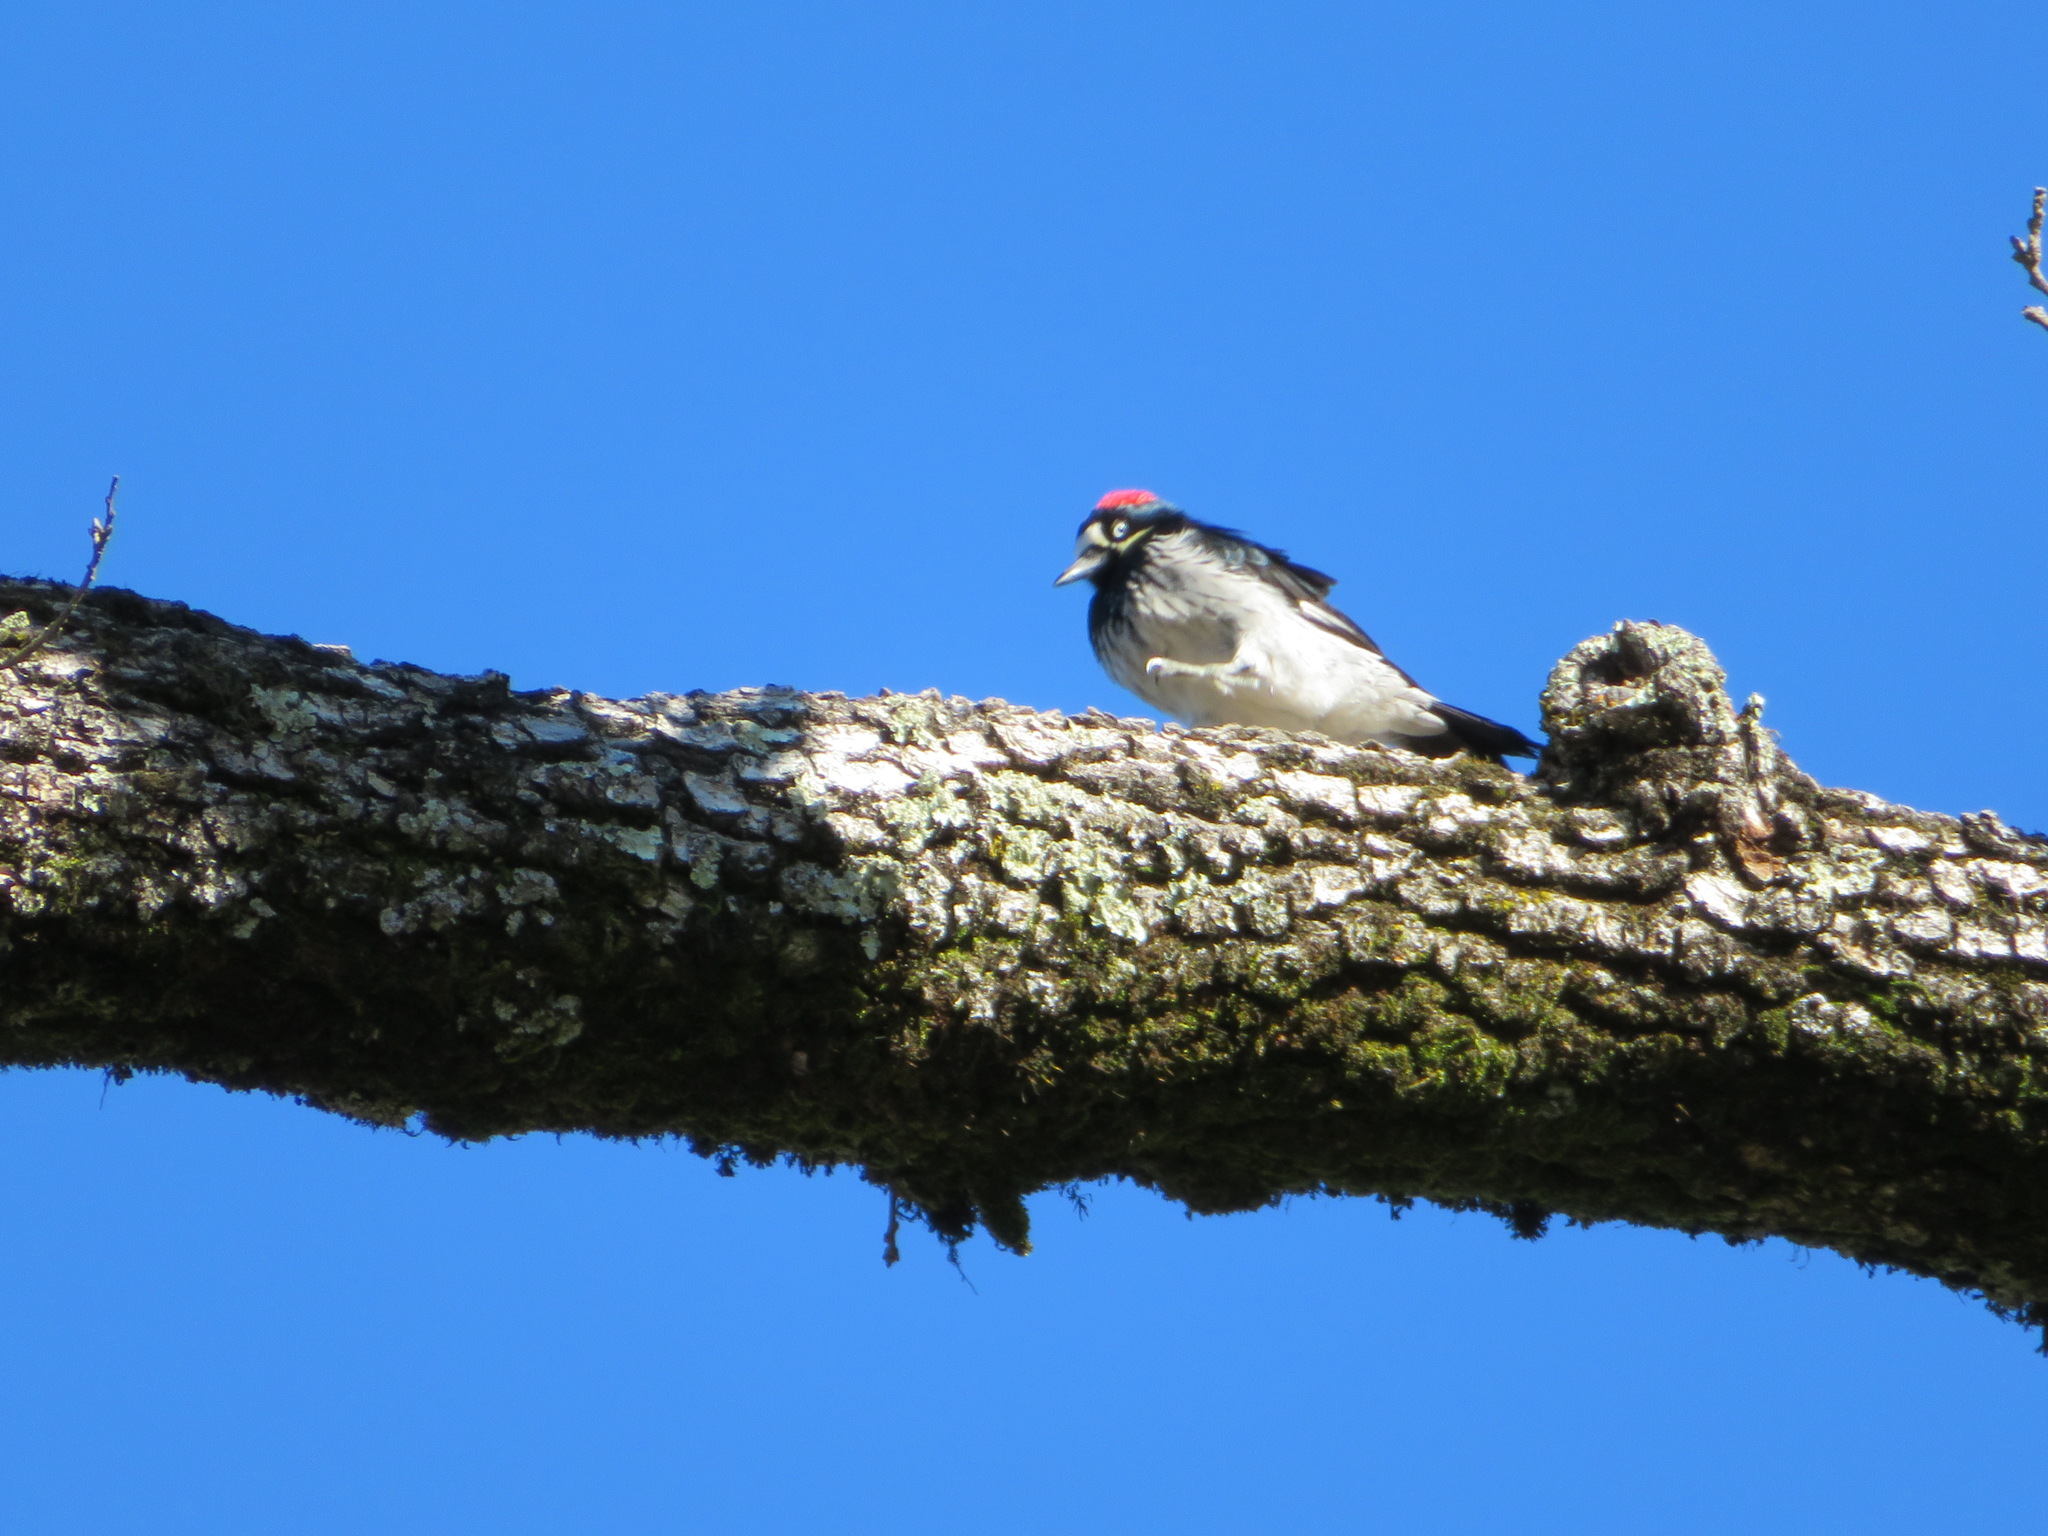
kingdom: Animalia
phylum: Chordata
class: Aves
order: Piciformes
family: Picidae
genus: Melanerpes
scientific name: Melanerpes formicivorus
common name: Acorn woodpecker
